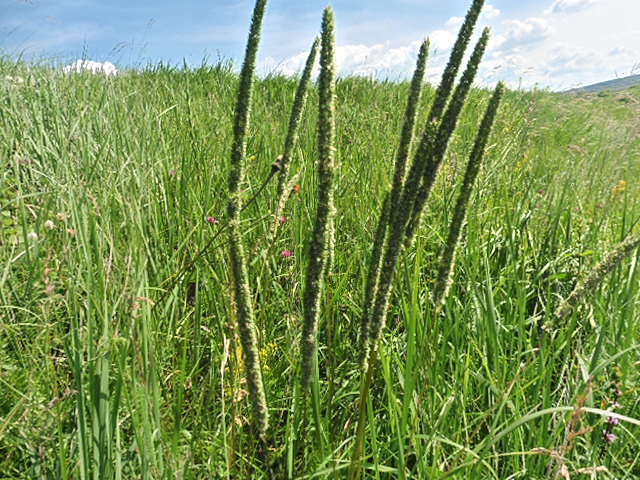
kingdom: Plantae
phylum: Tracheophyta
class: Liliopsida
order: Poales
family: Poaceae
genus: Phleum
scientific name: Phleum phleoides
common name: Purple-stem cat's-tail
